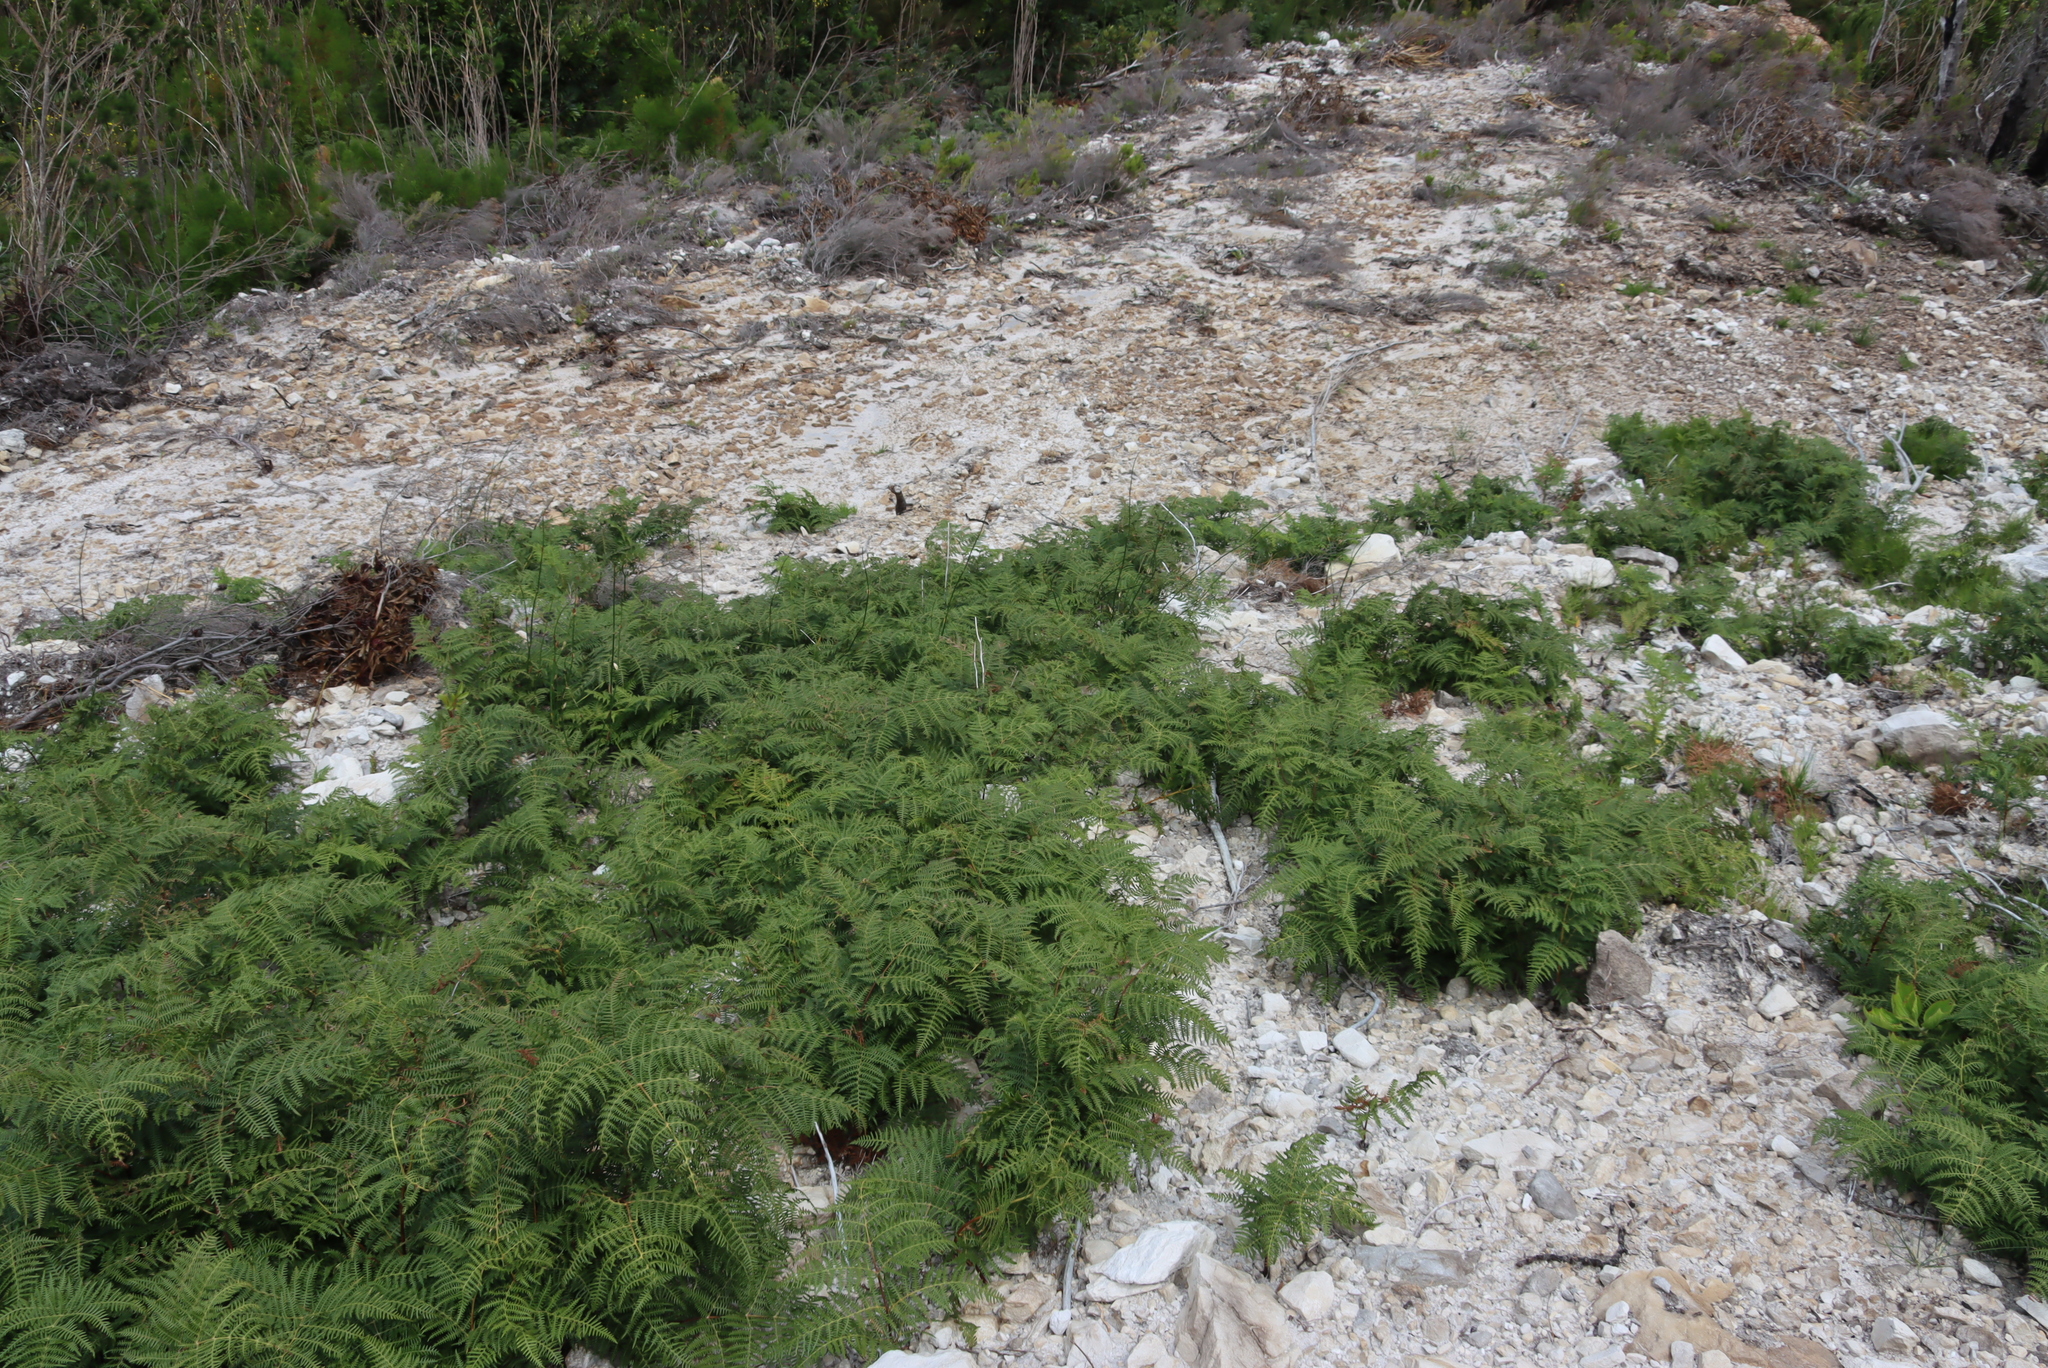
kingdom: Plantae
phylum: Tracheophyta
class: Polypodiopsida
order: Polypodiales
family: Dennstaedtiaceae
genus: Pteridium
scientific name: Pteridium aquilinum
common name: Bracken
